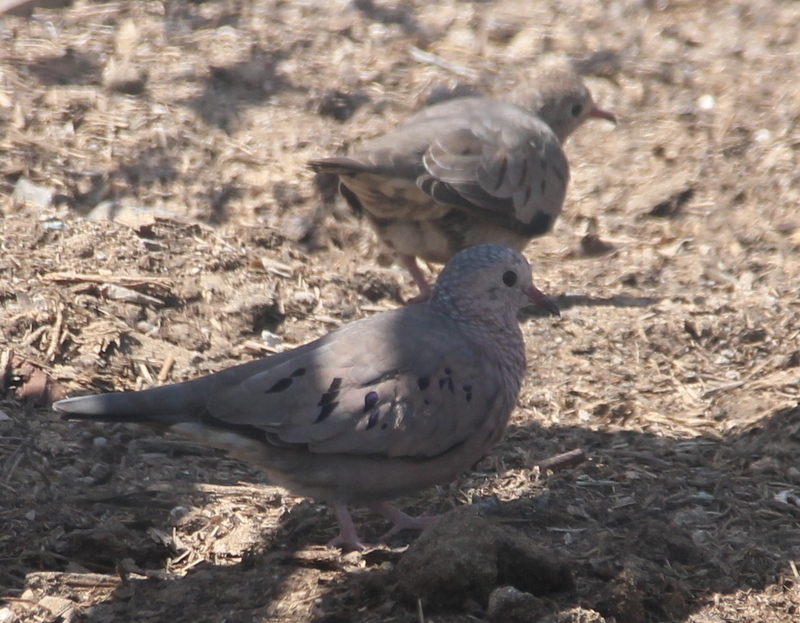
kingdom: Animalia
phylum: Chordata
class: Aves
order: Columbiformes
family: Columbidae
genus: Columbina
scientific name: Columbina passerina
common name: Common ground-dove
